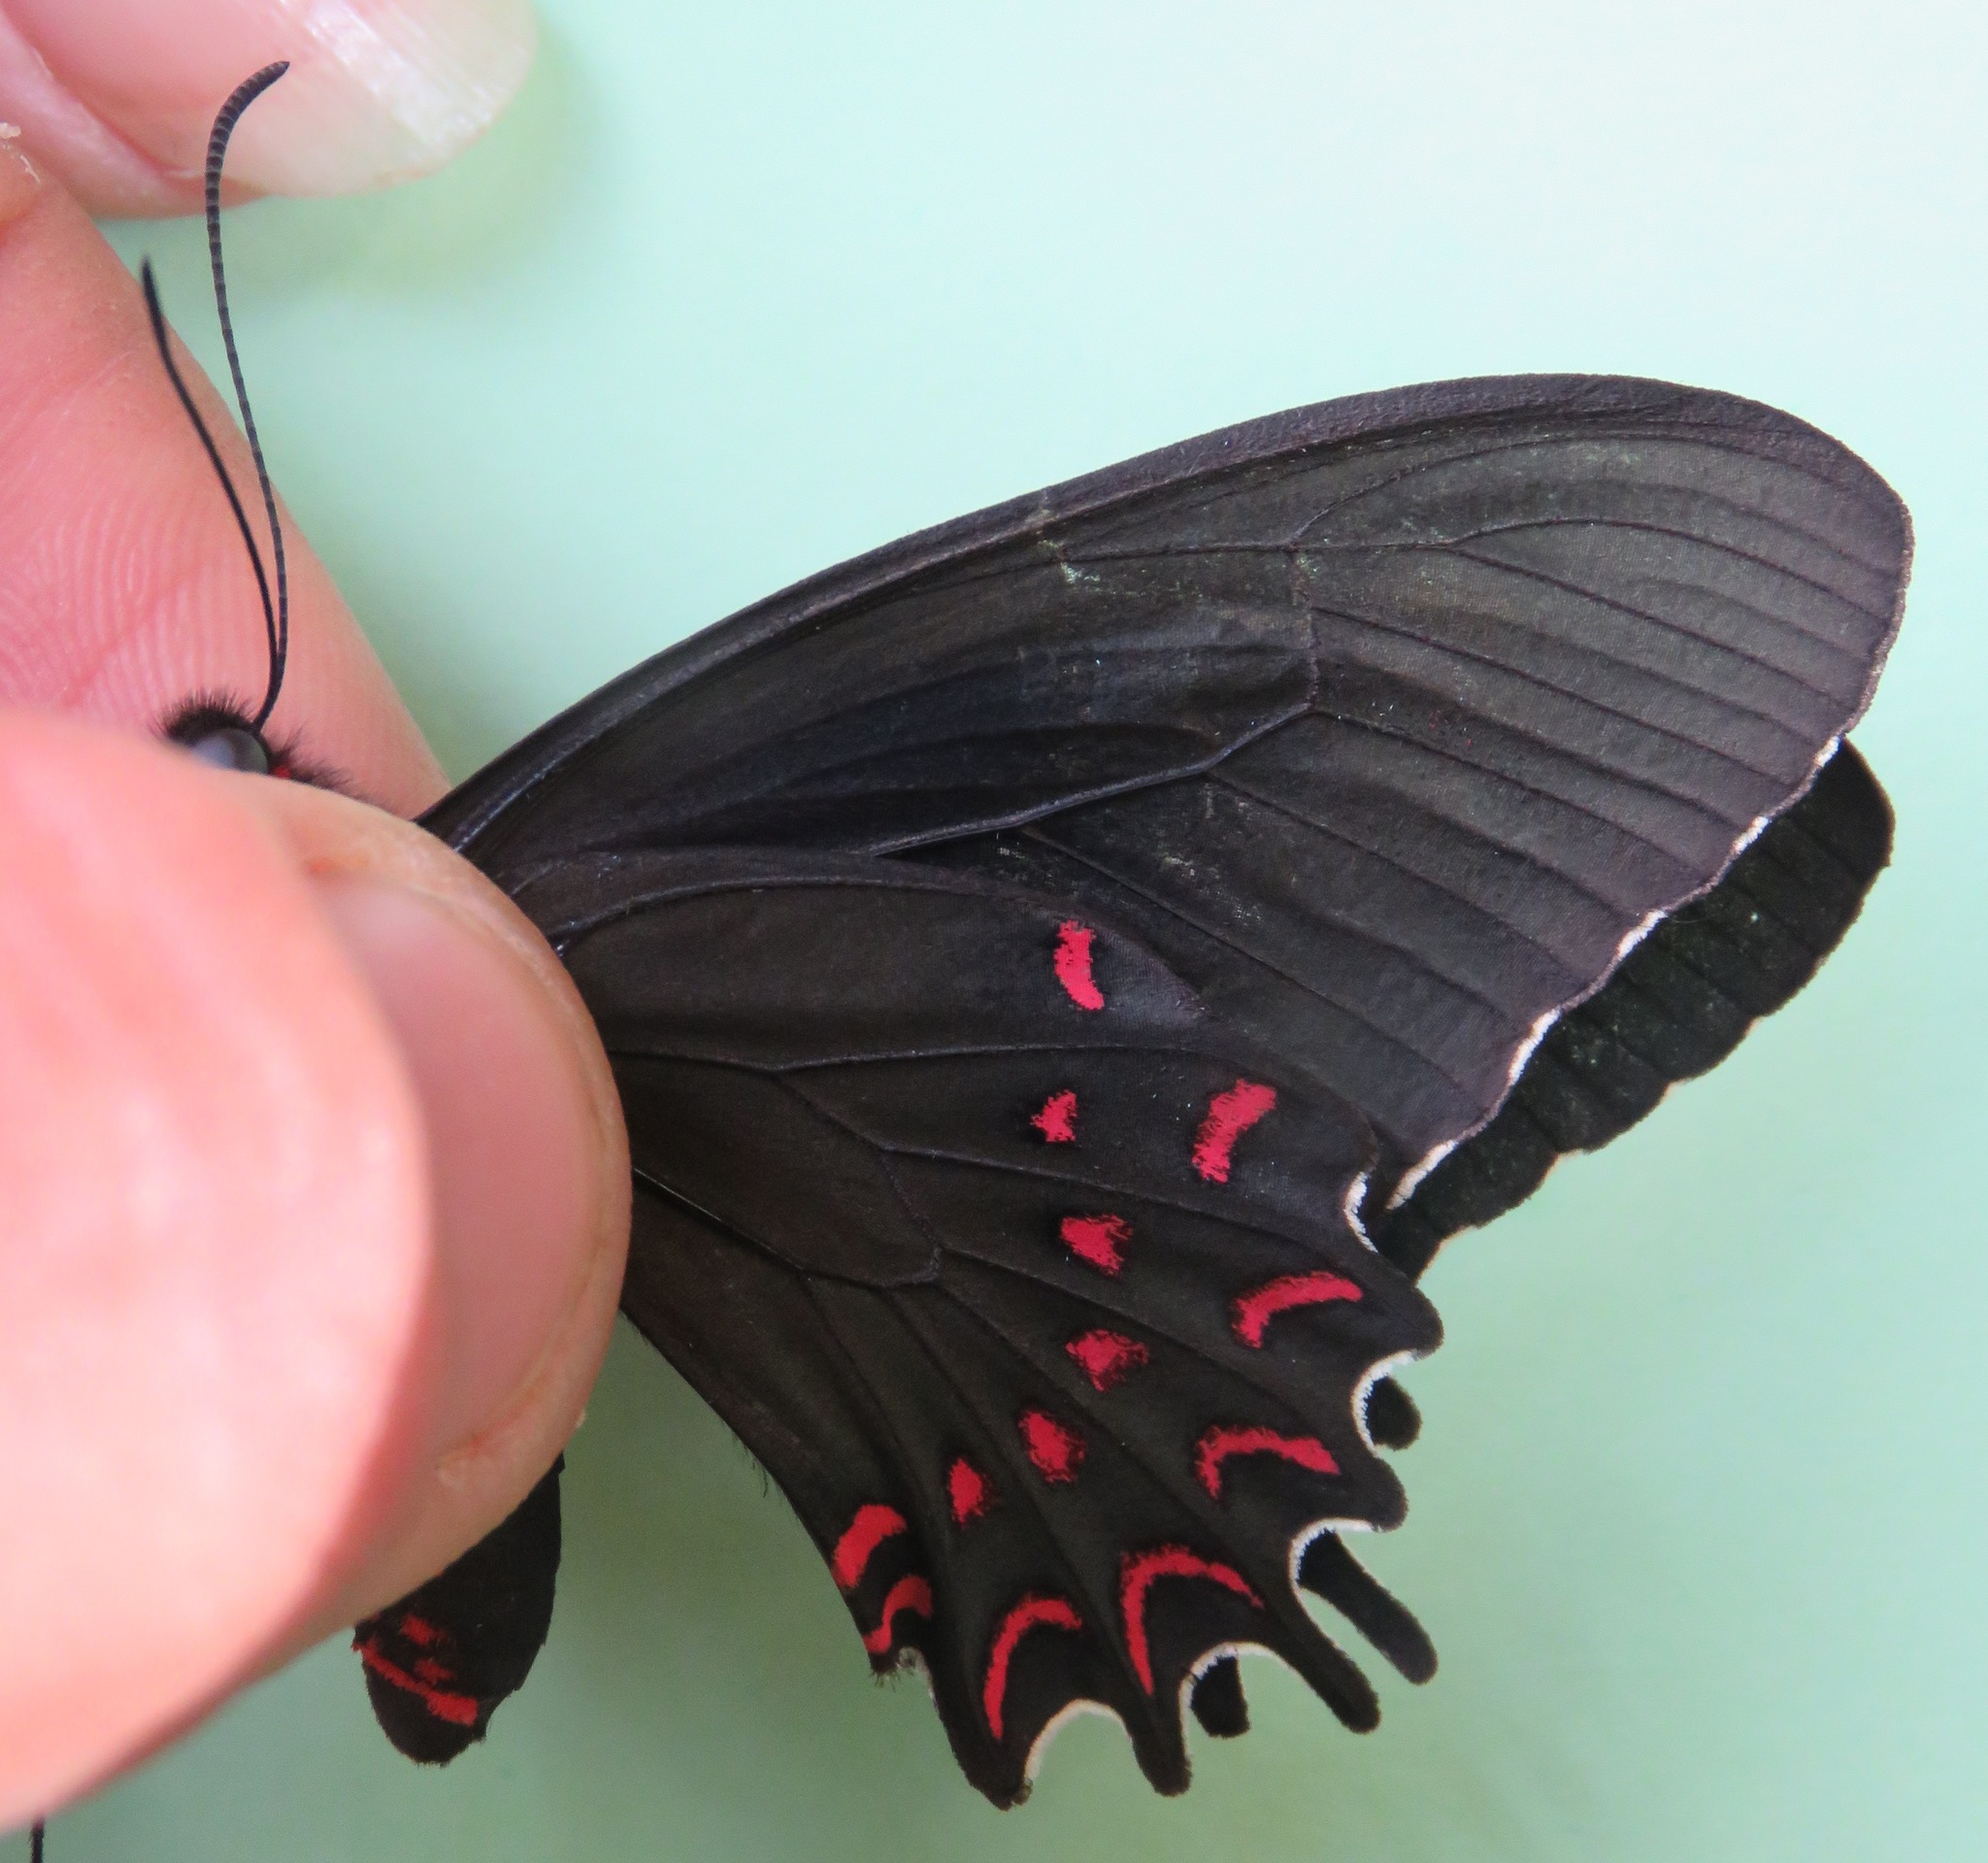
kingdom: Animalia
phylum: Arthropoda
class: Insecta
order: Lepidoptera
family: Papilionidae
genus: Parides
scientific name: Parides photinus
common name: Pink-spotted cattleheart
